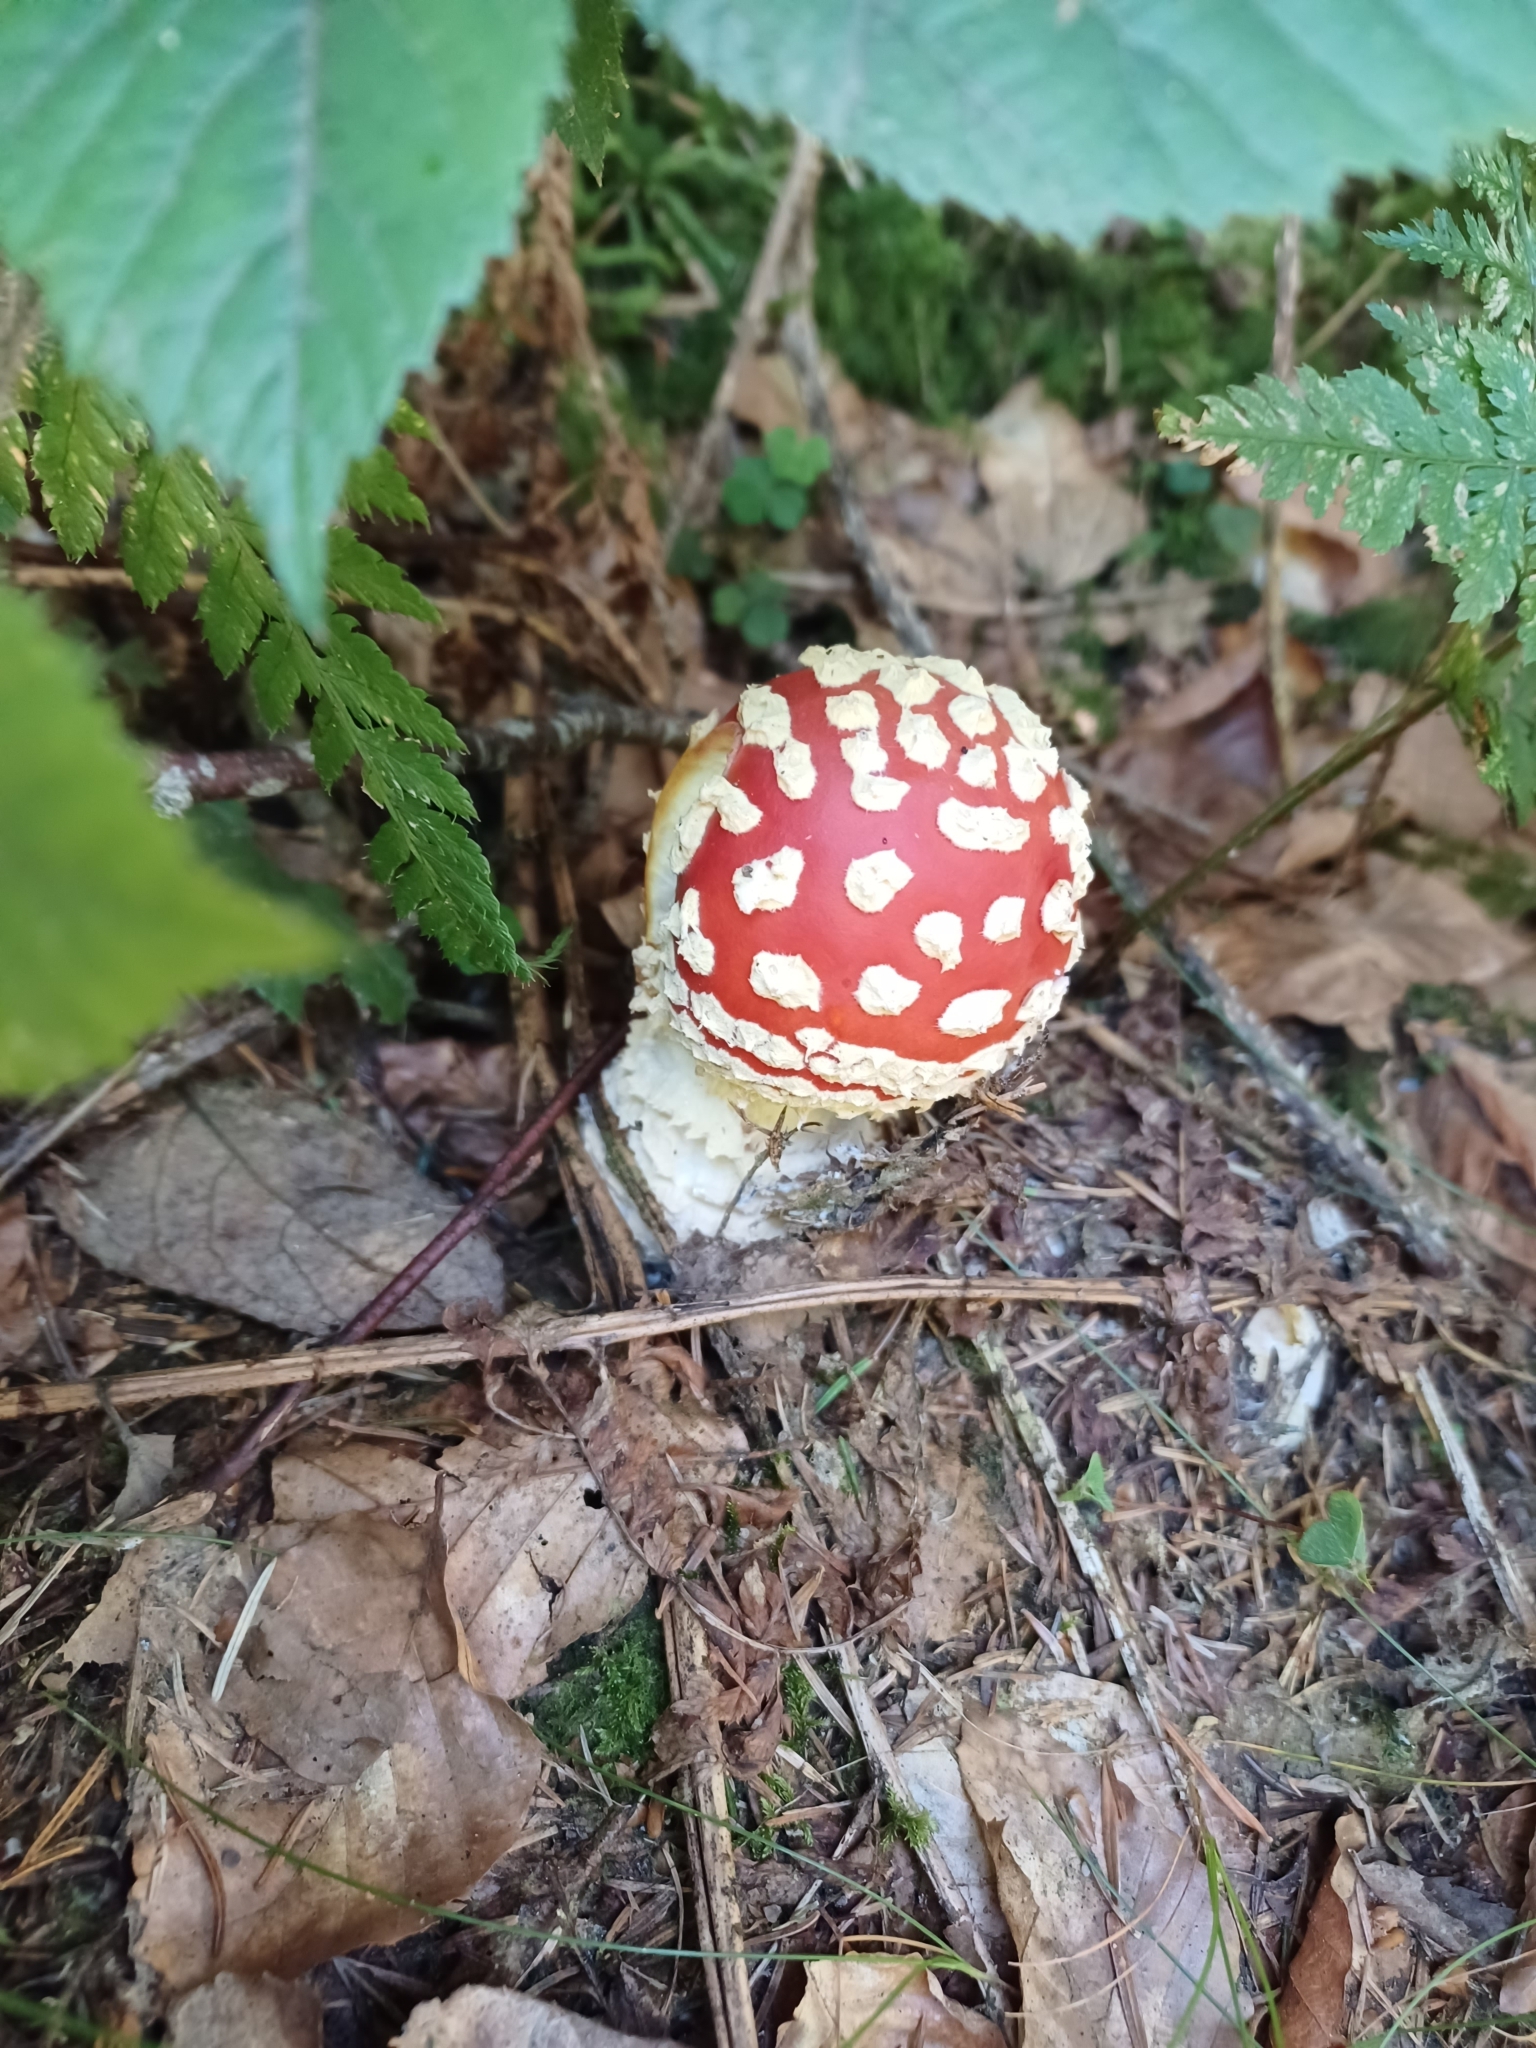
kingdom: Fungi
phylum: Basidiomycota
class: Agaricomycetes
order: Agaricales
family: Amanitaceae
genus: Amanita
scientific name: Amanita muscaria
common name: Fly agaric
